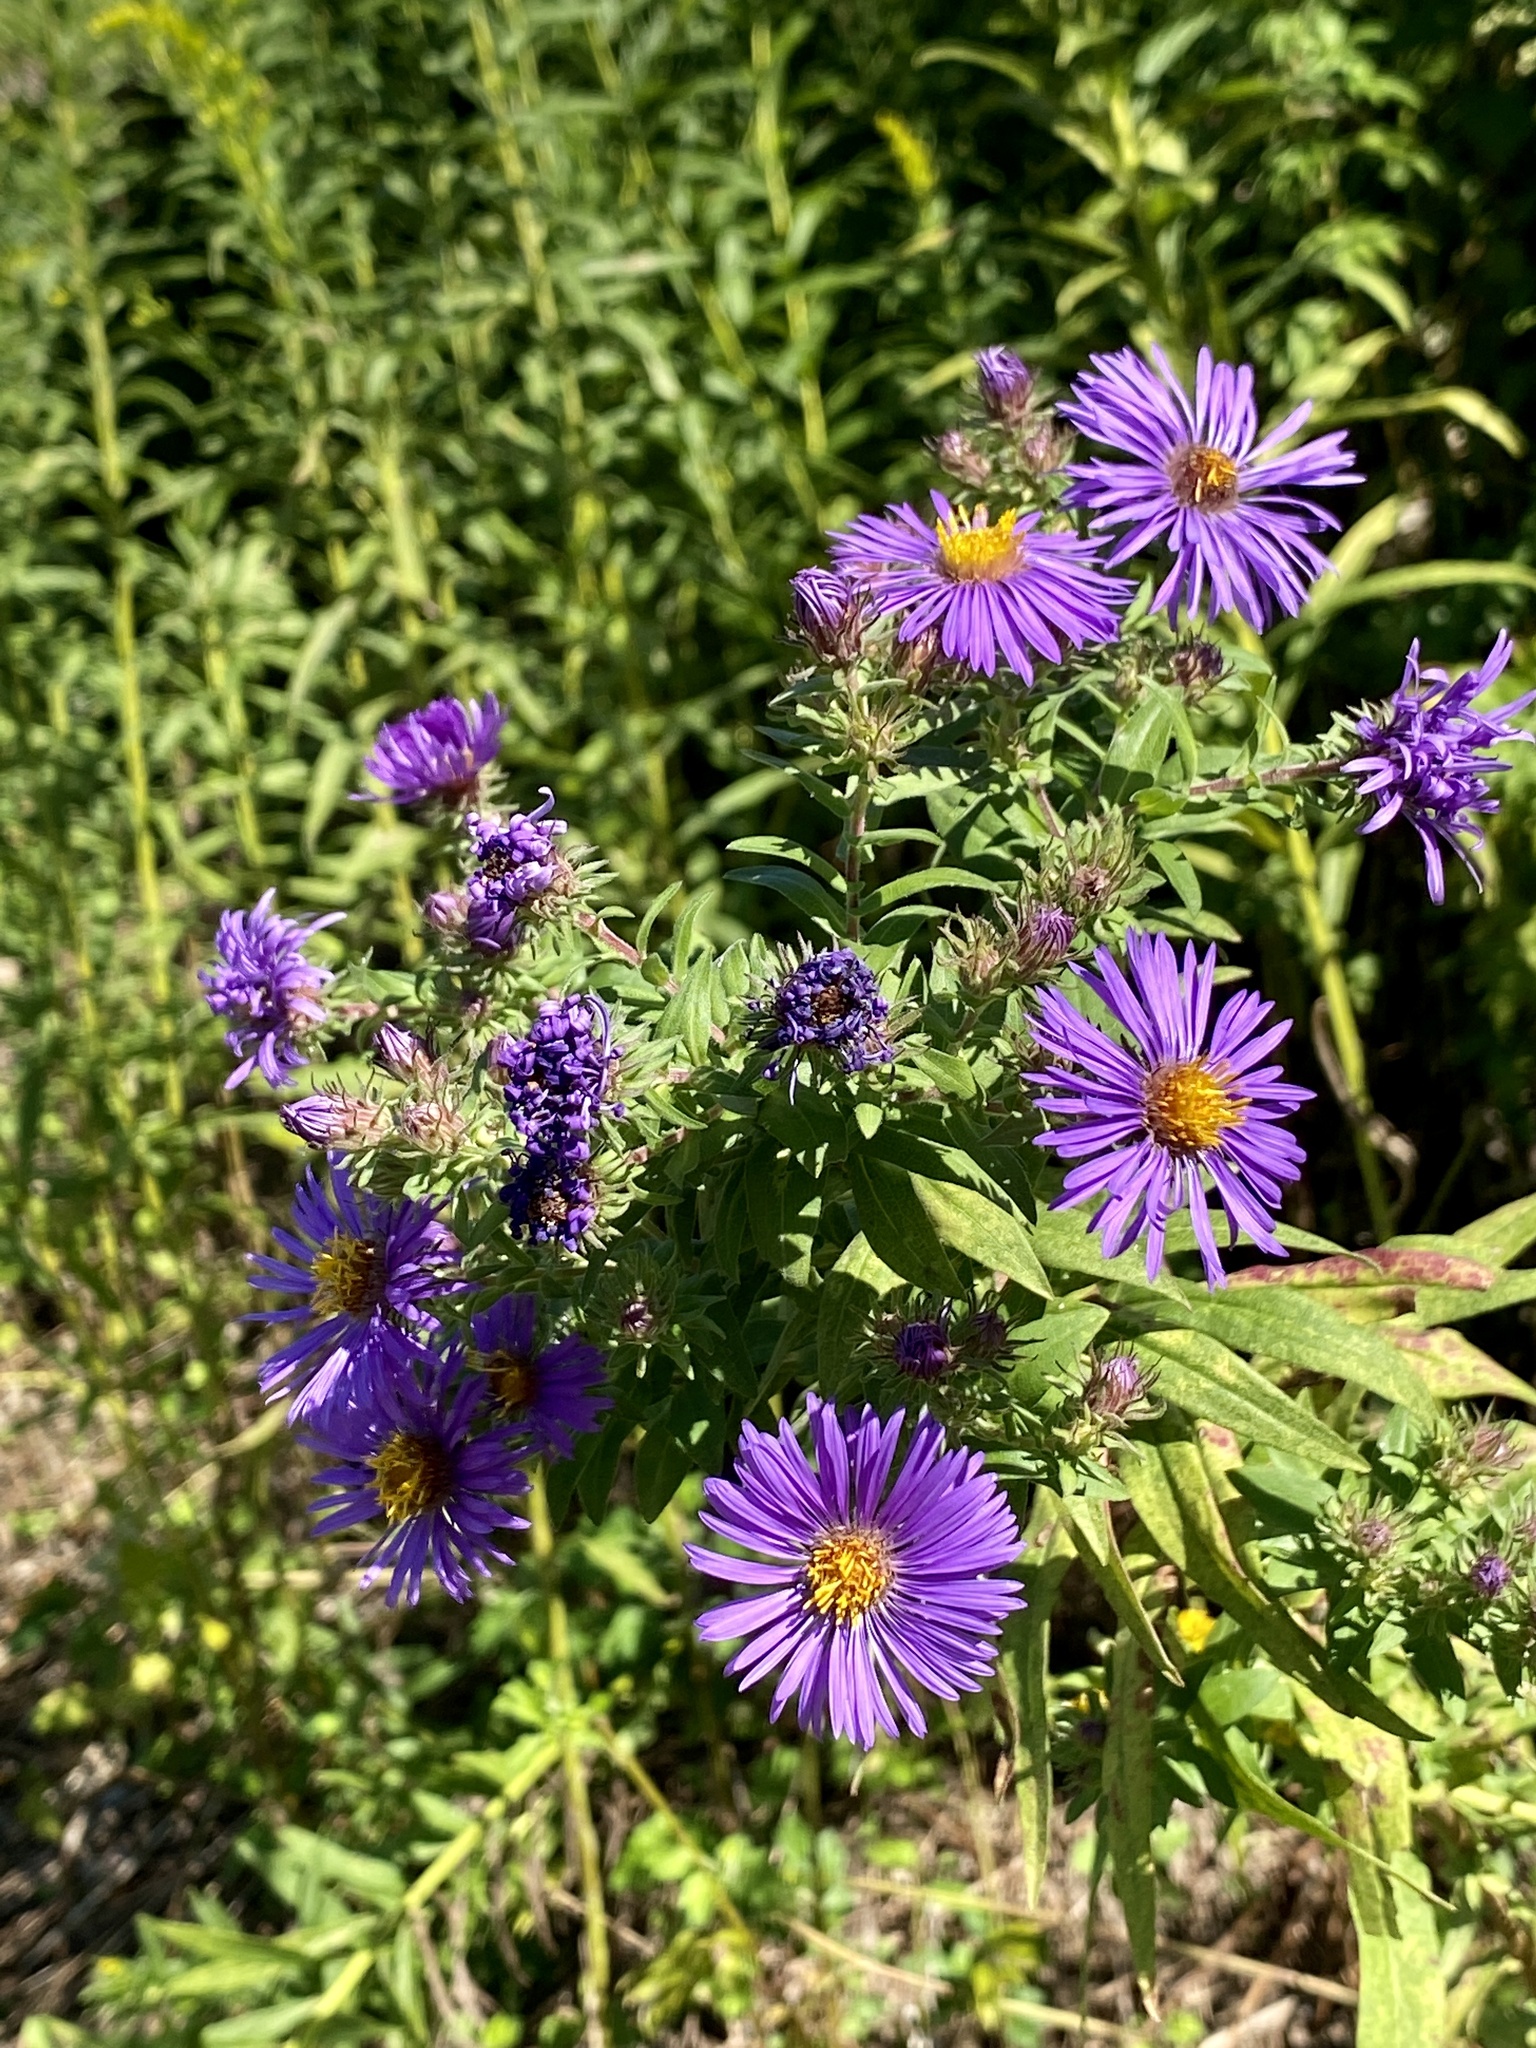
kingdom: Plantae
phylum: Tracheophyta
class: Magnoliopsida
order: Asterales
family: Asteraceae
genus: Symphyotrichum
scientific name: Symphyotrichum novae-angliae
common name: Michaelmas daisy
